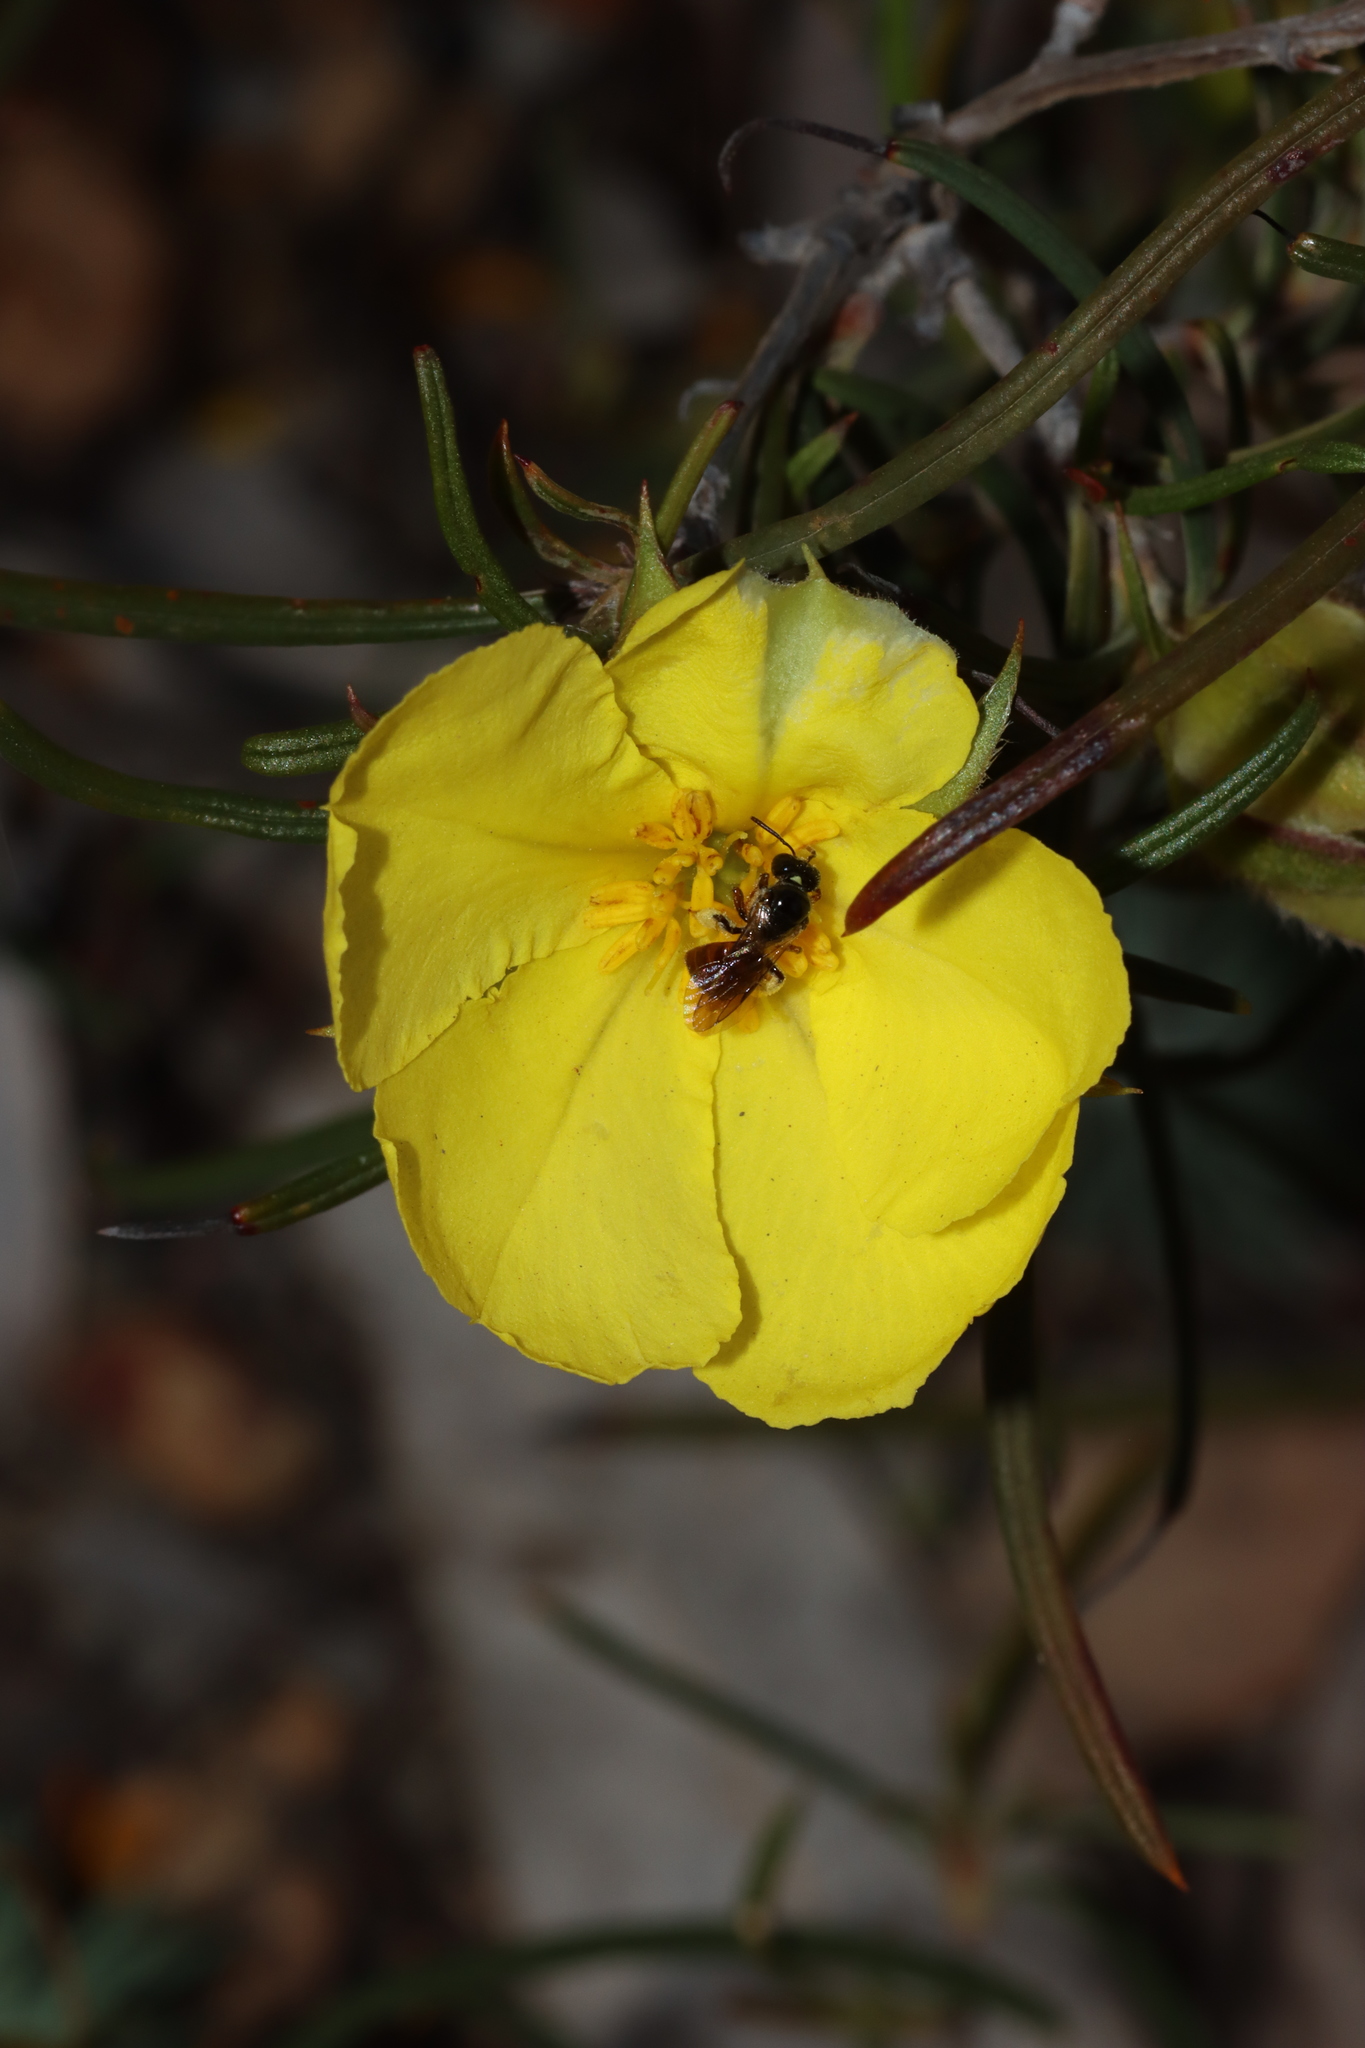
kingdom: Plantae
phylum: Tracheophyta
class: Magnoliopsida
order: Dilleniales
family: Dilleniaceae
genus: Hibbertia
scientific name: Hibbertia striata
